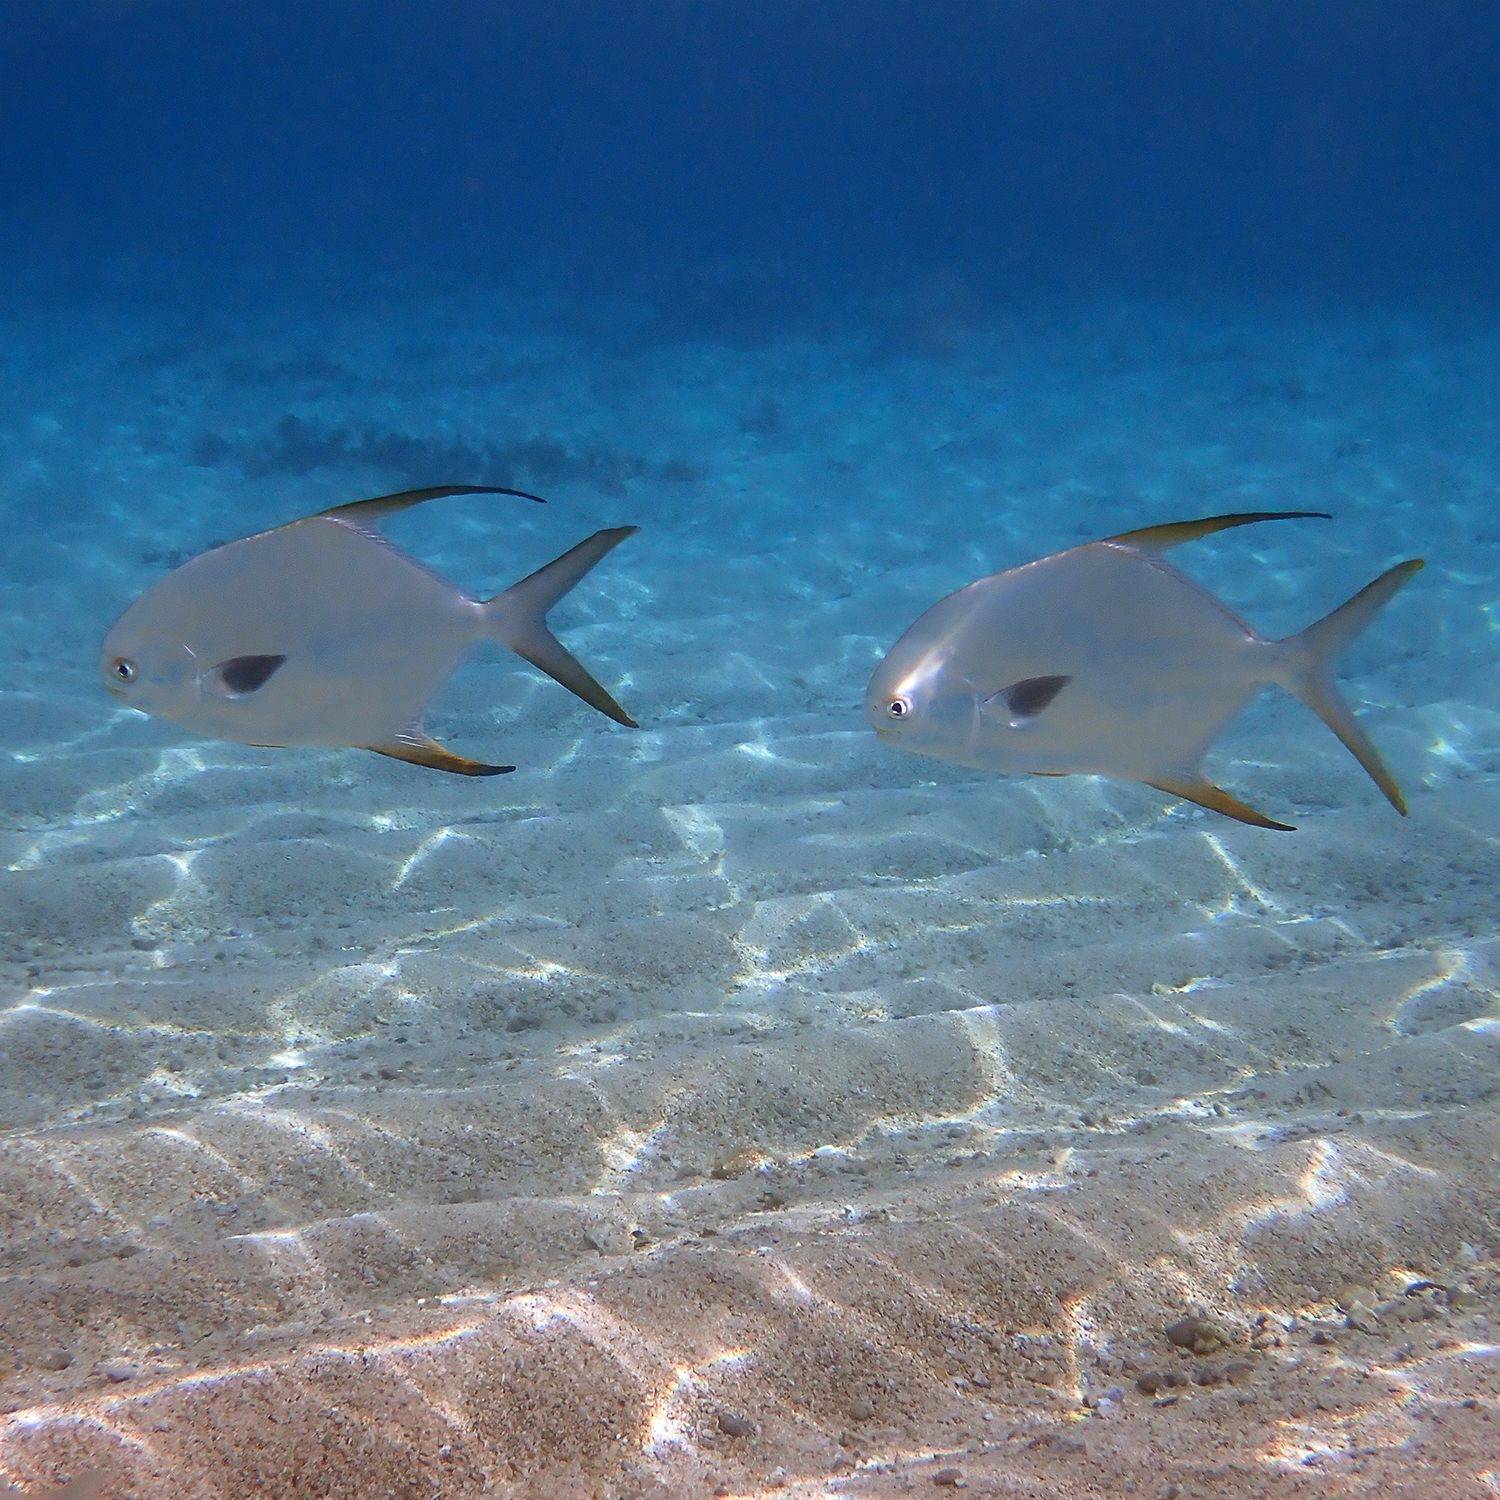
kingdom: Animalia
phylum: Chordata
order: Perciformes
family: Carangidae
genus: Trachinotus
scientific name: Trachinotus blochii
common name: Snubnose pompano
